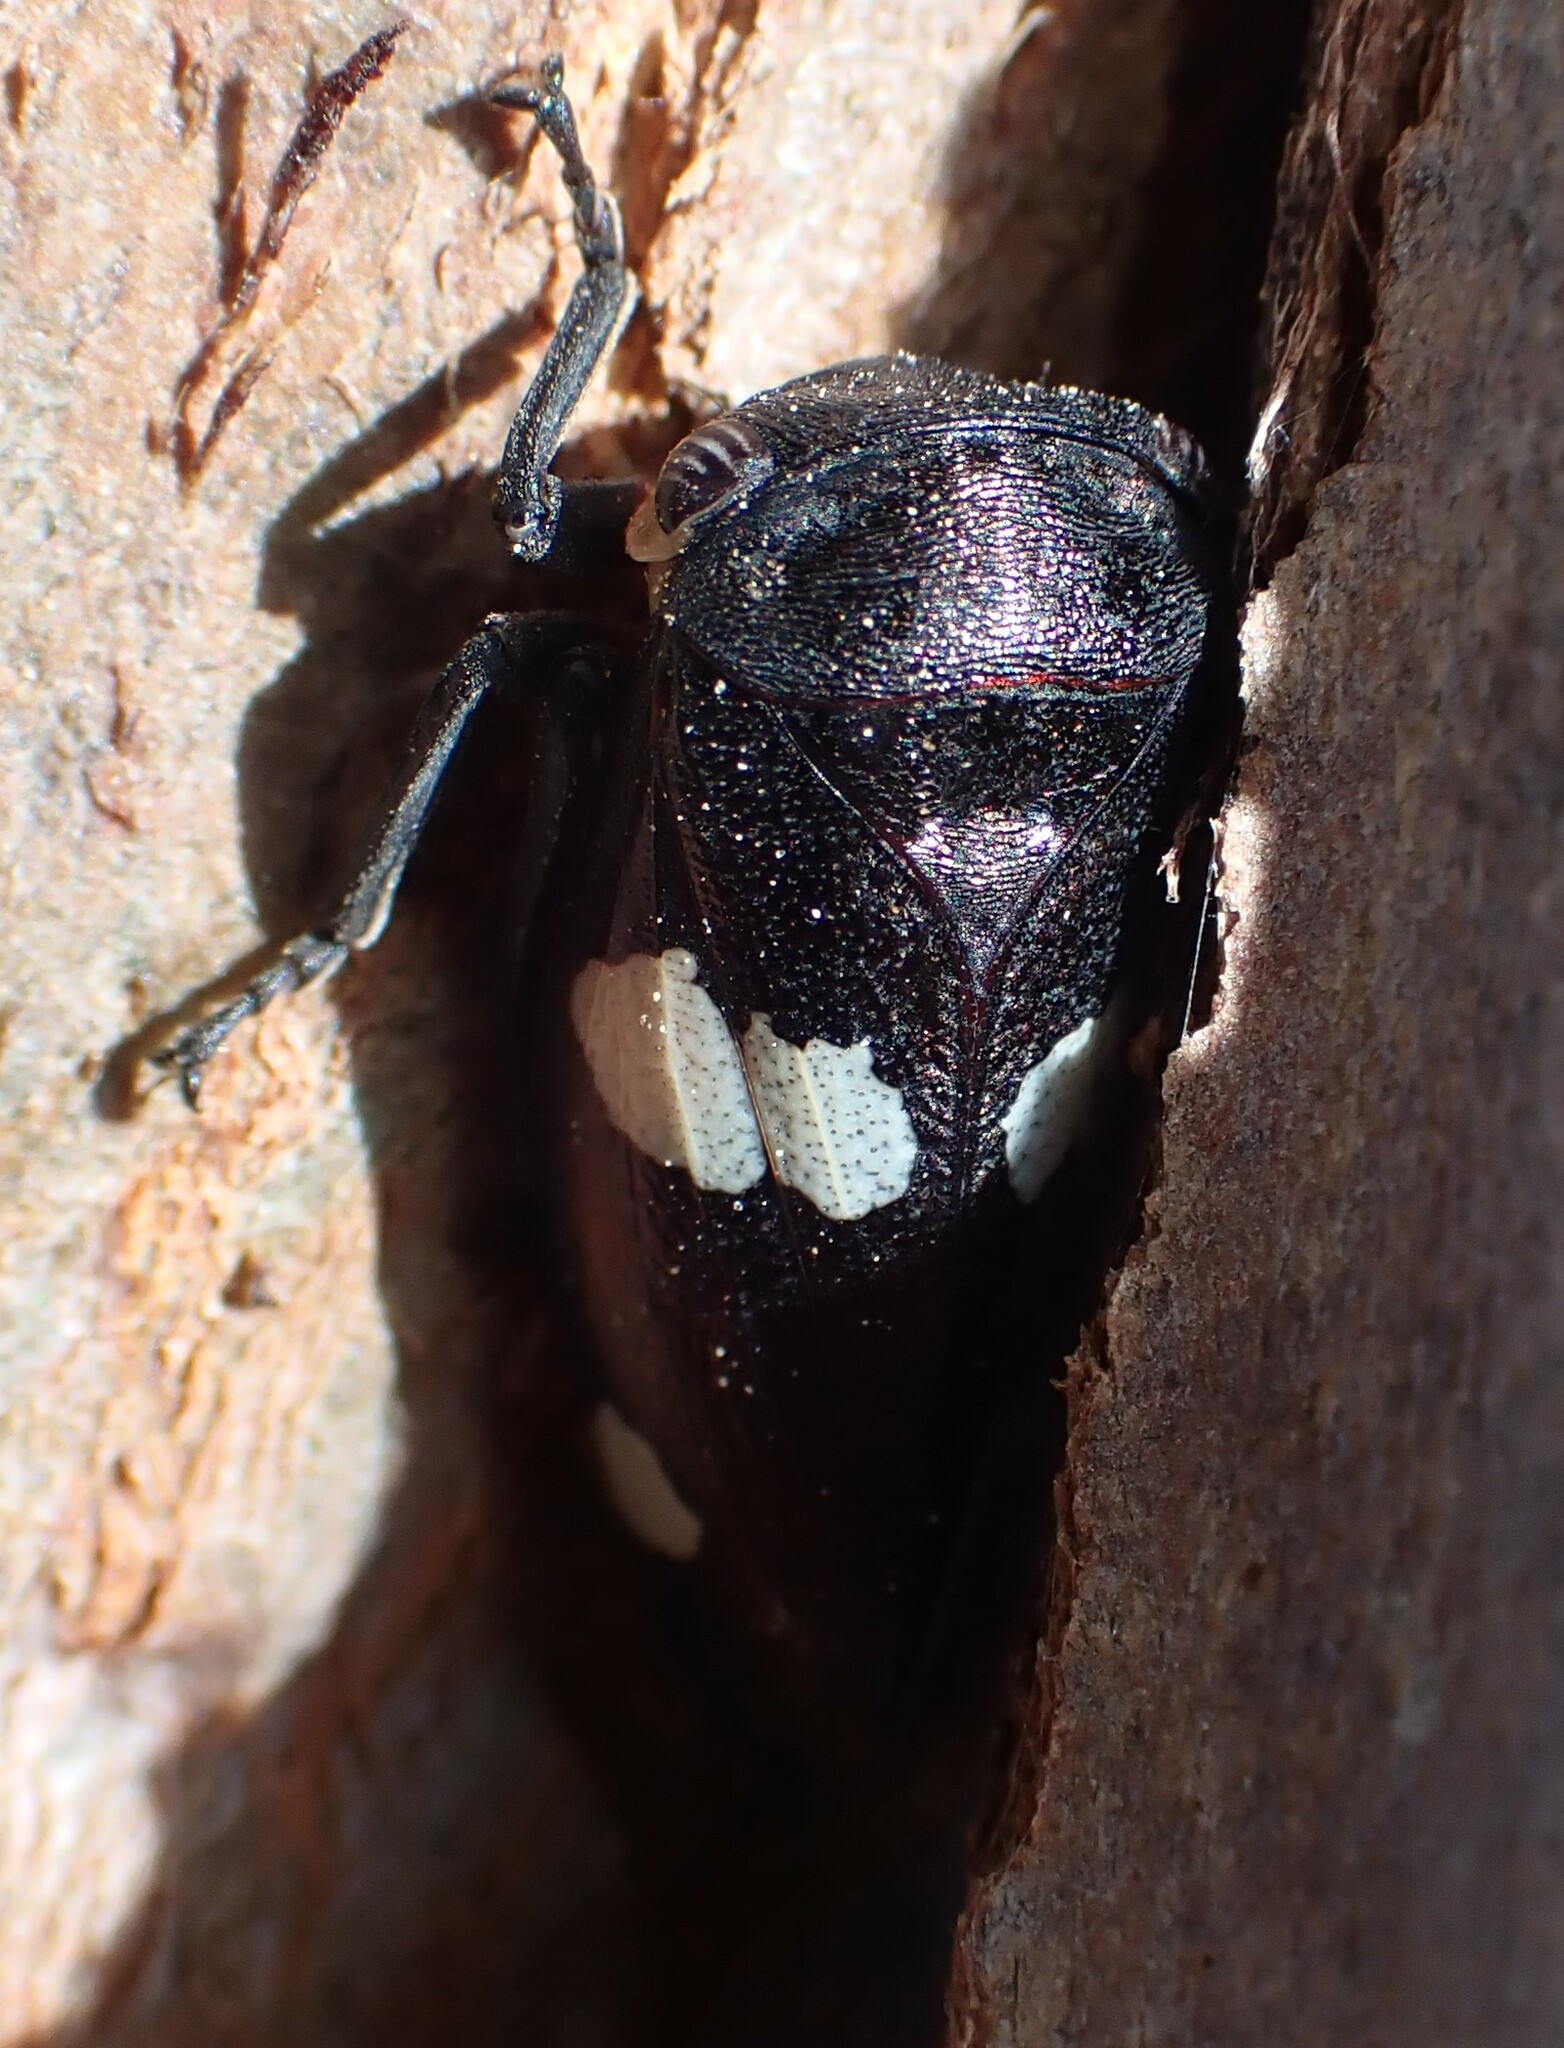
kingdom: Animalia
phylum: Arthropoda
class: Insecta
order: Hemiptera
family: Cicadellidae
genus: Eurymela
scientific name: Eurymela distincta
